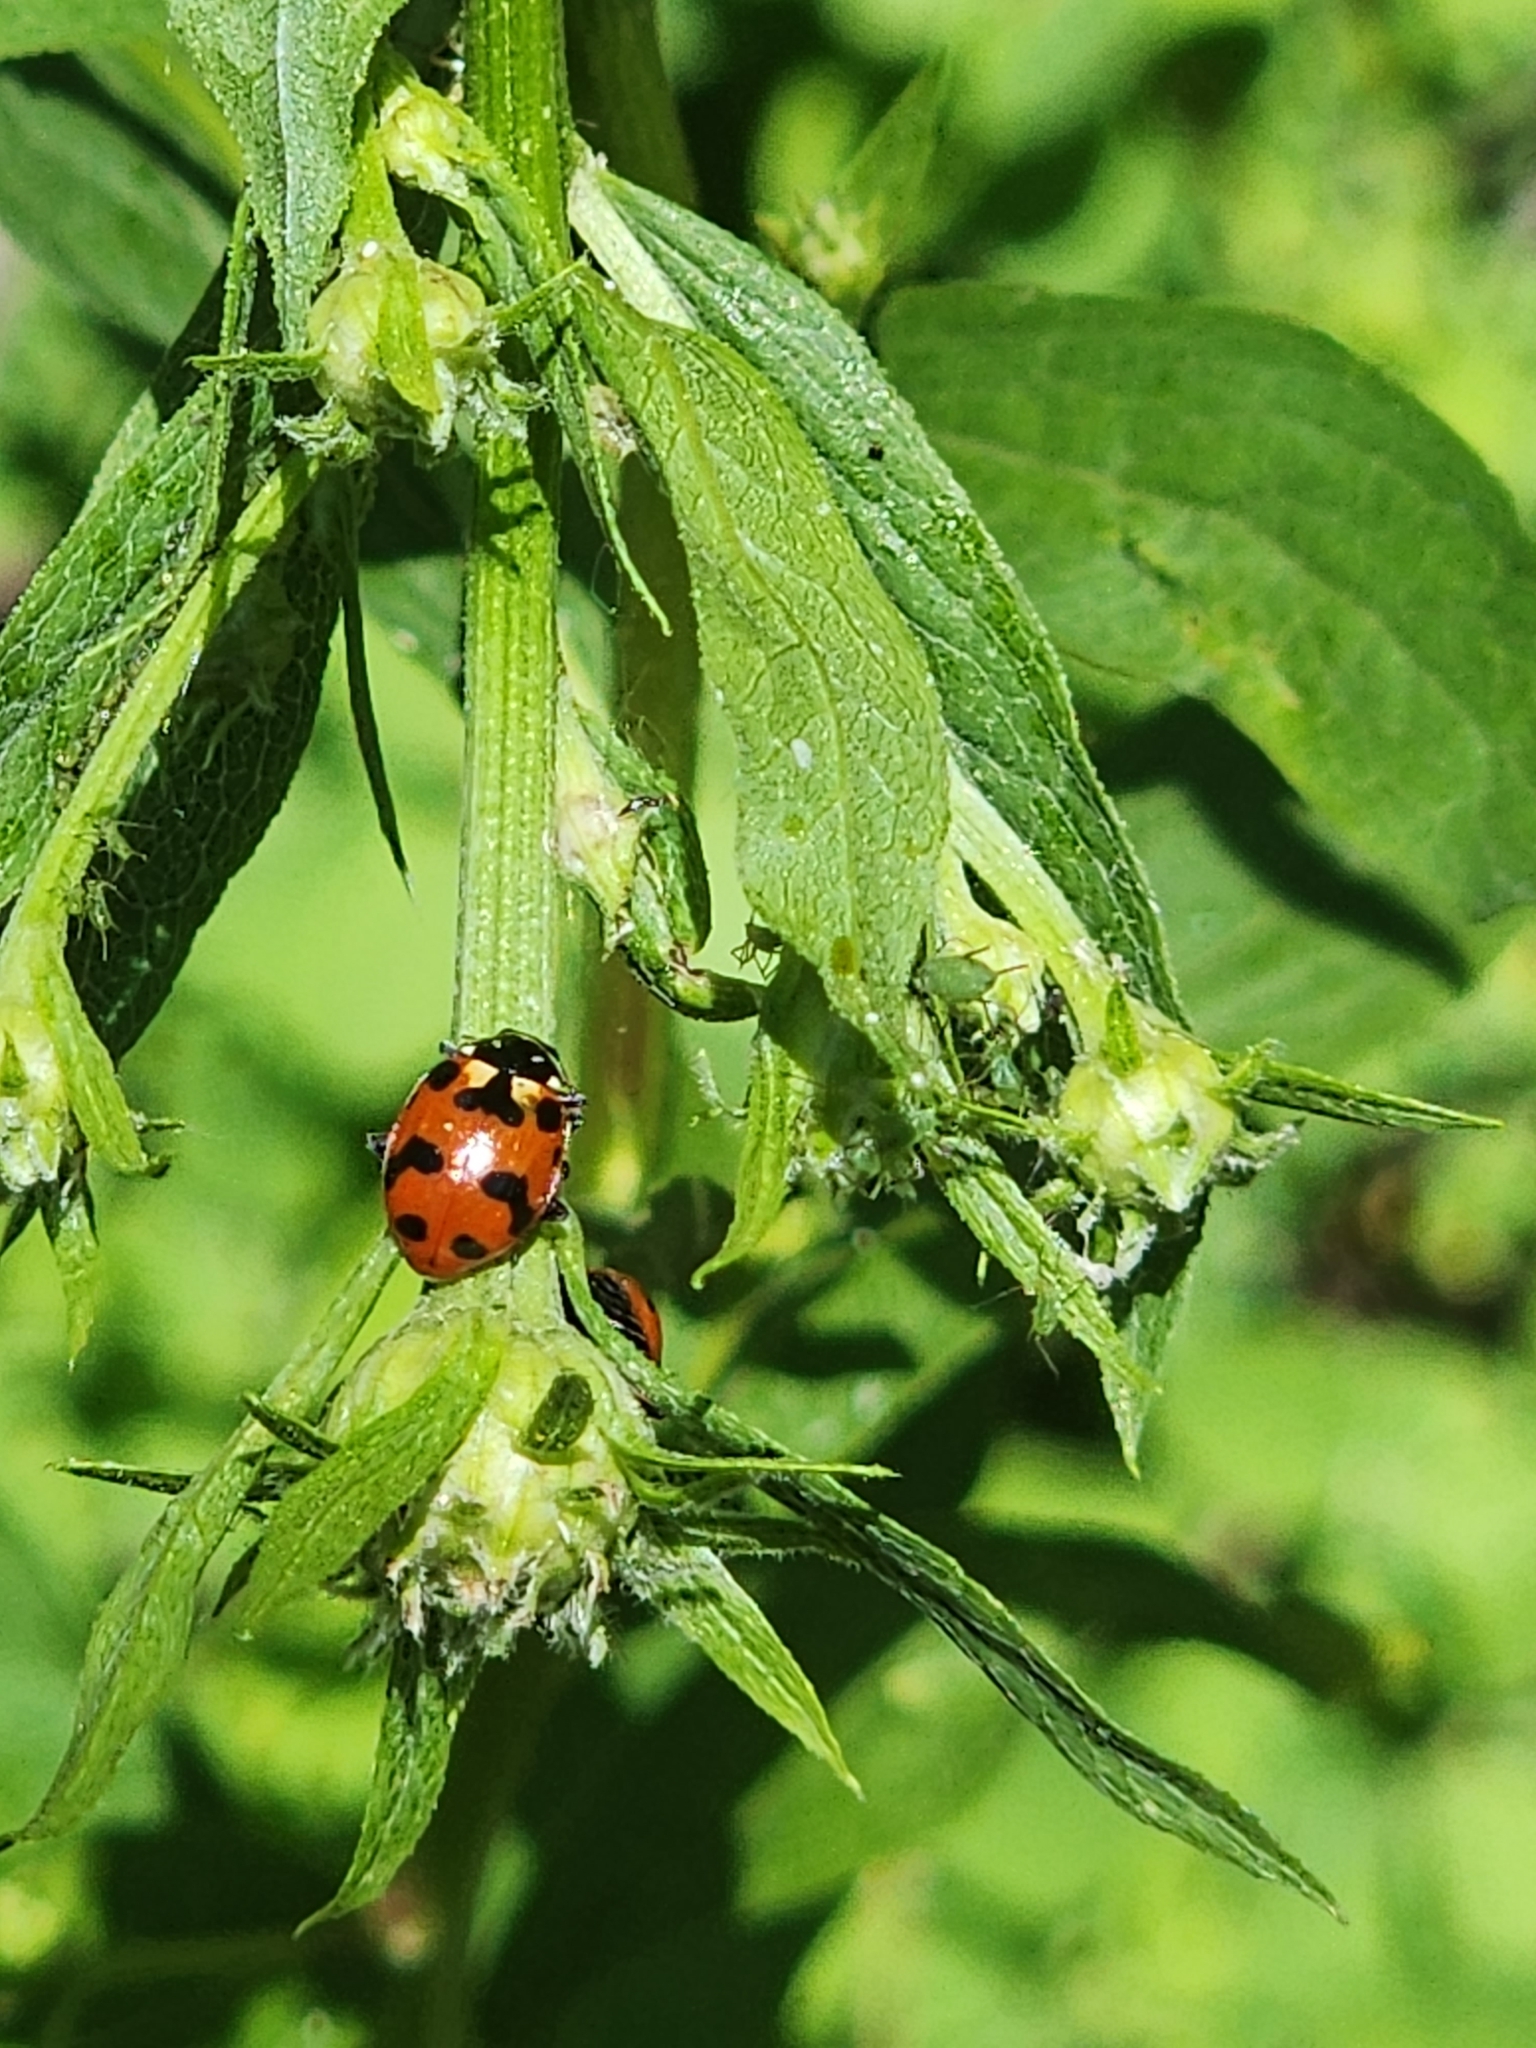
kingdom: Animalia
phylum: Arthropoda
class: Insecta
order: Coleoptera
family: Coccinellidae
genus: Hippodamia
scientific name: Hippodamia caseyi
